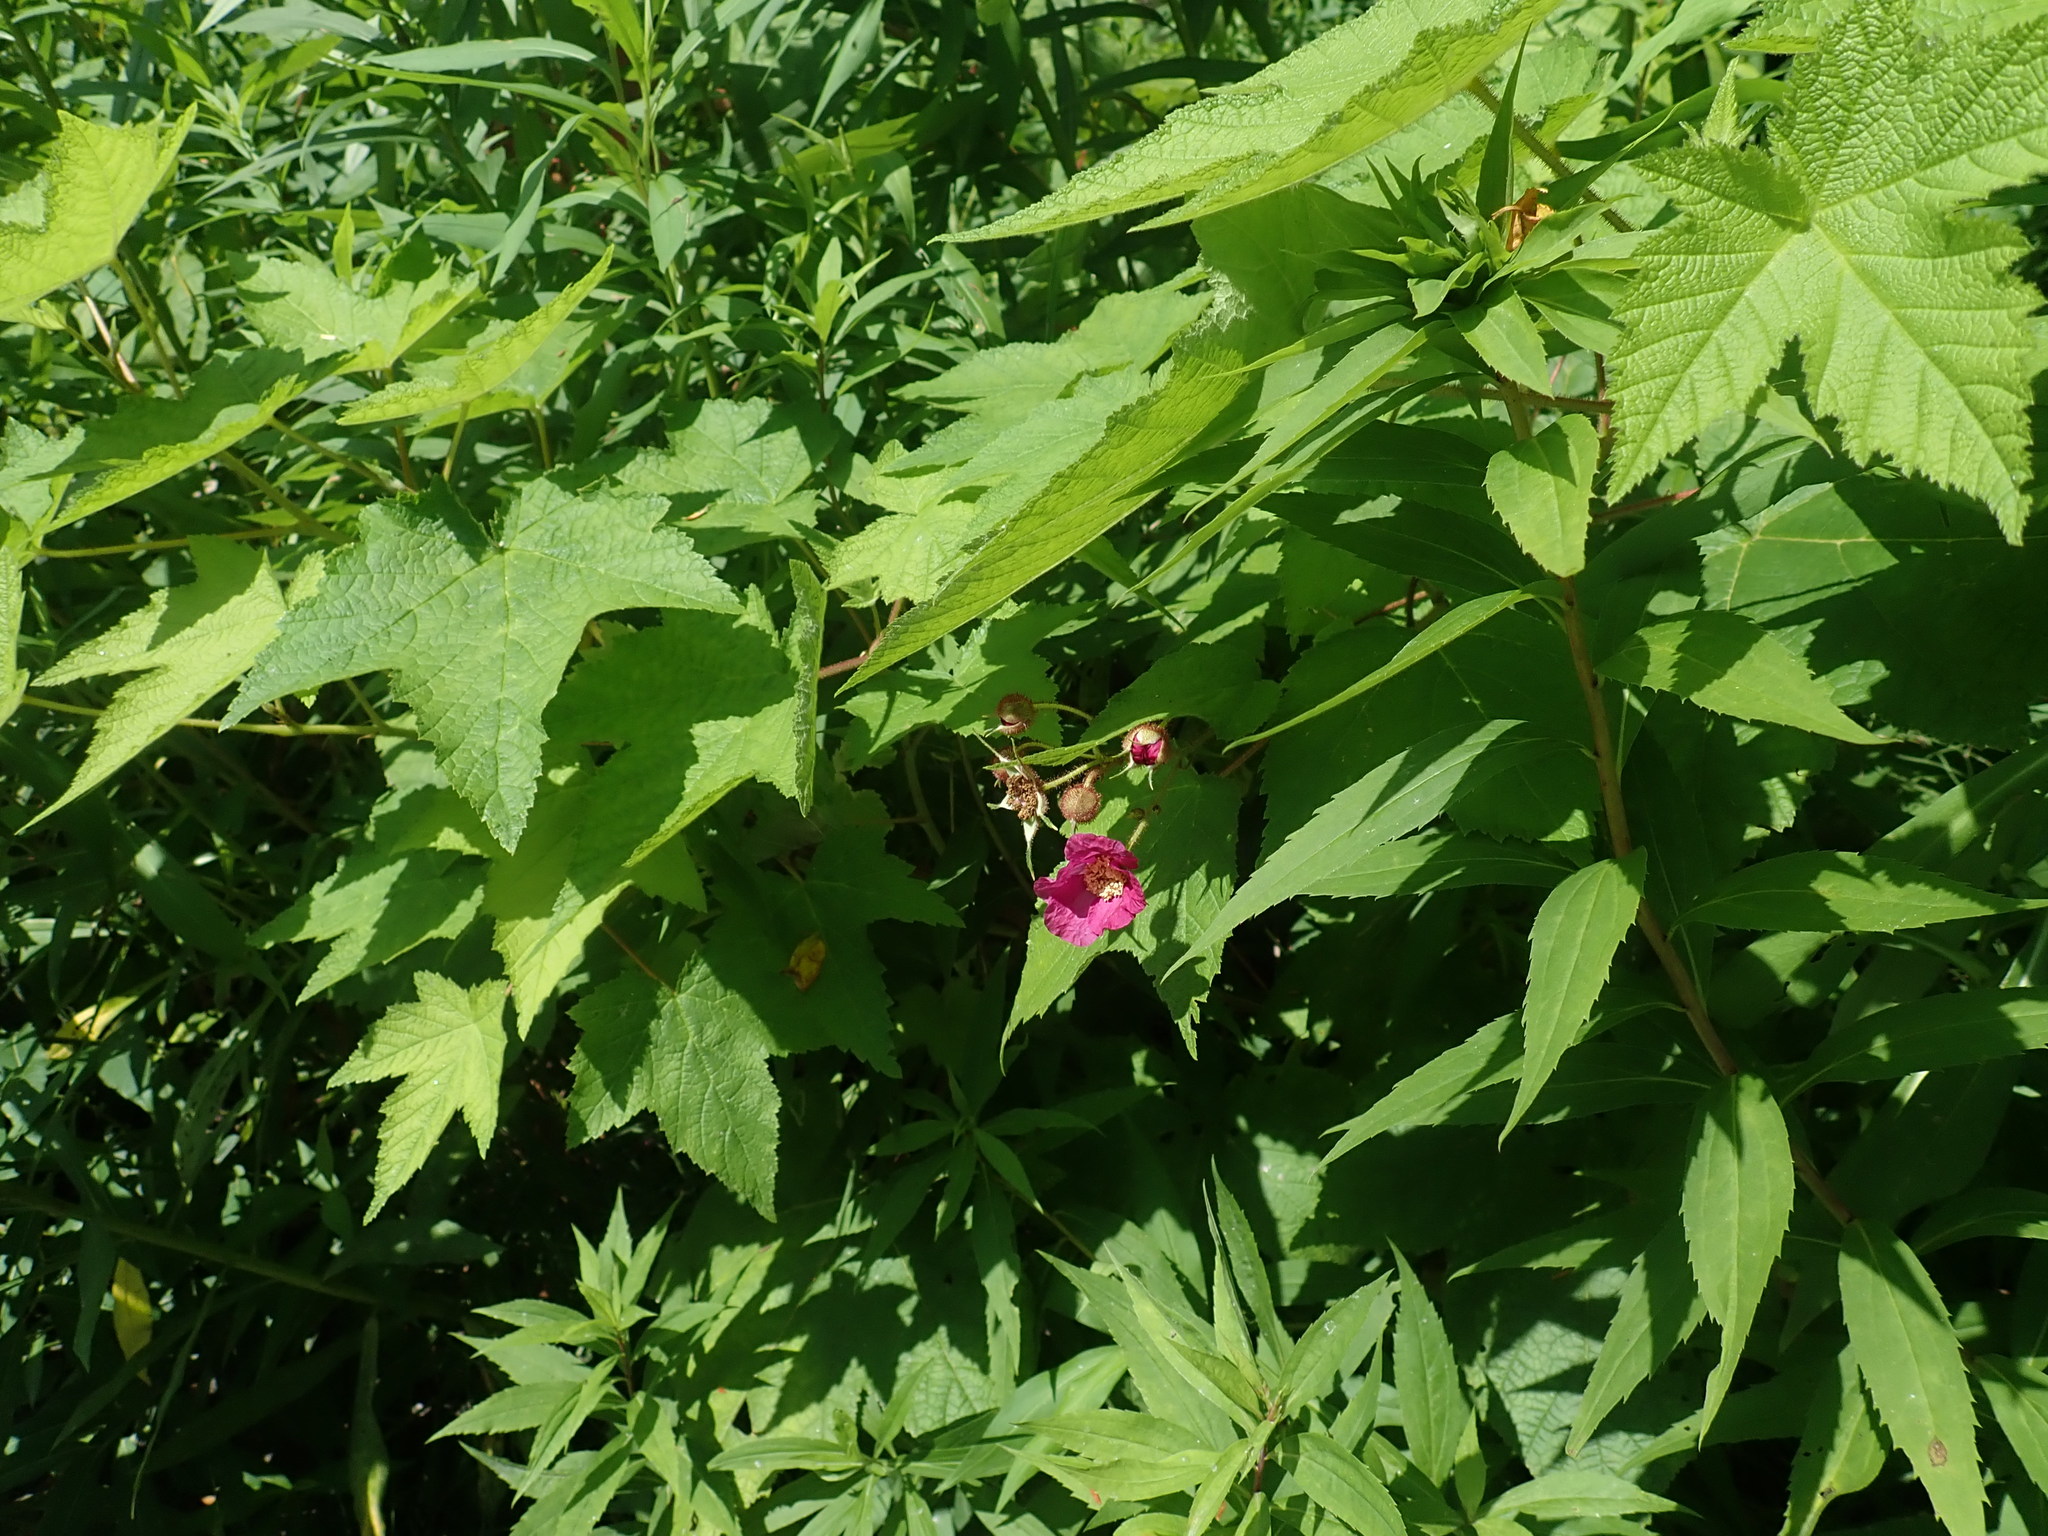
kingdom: Plantae
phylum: Tracheophyta
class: Magnoliopsida
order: Rosales
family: Rosaceae
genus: Rubus
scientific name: Rubus odoratus
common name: Purple-flowered raspberry
